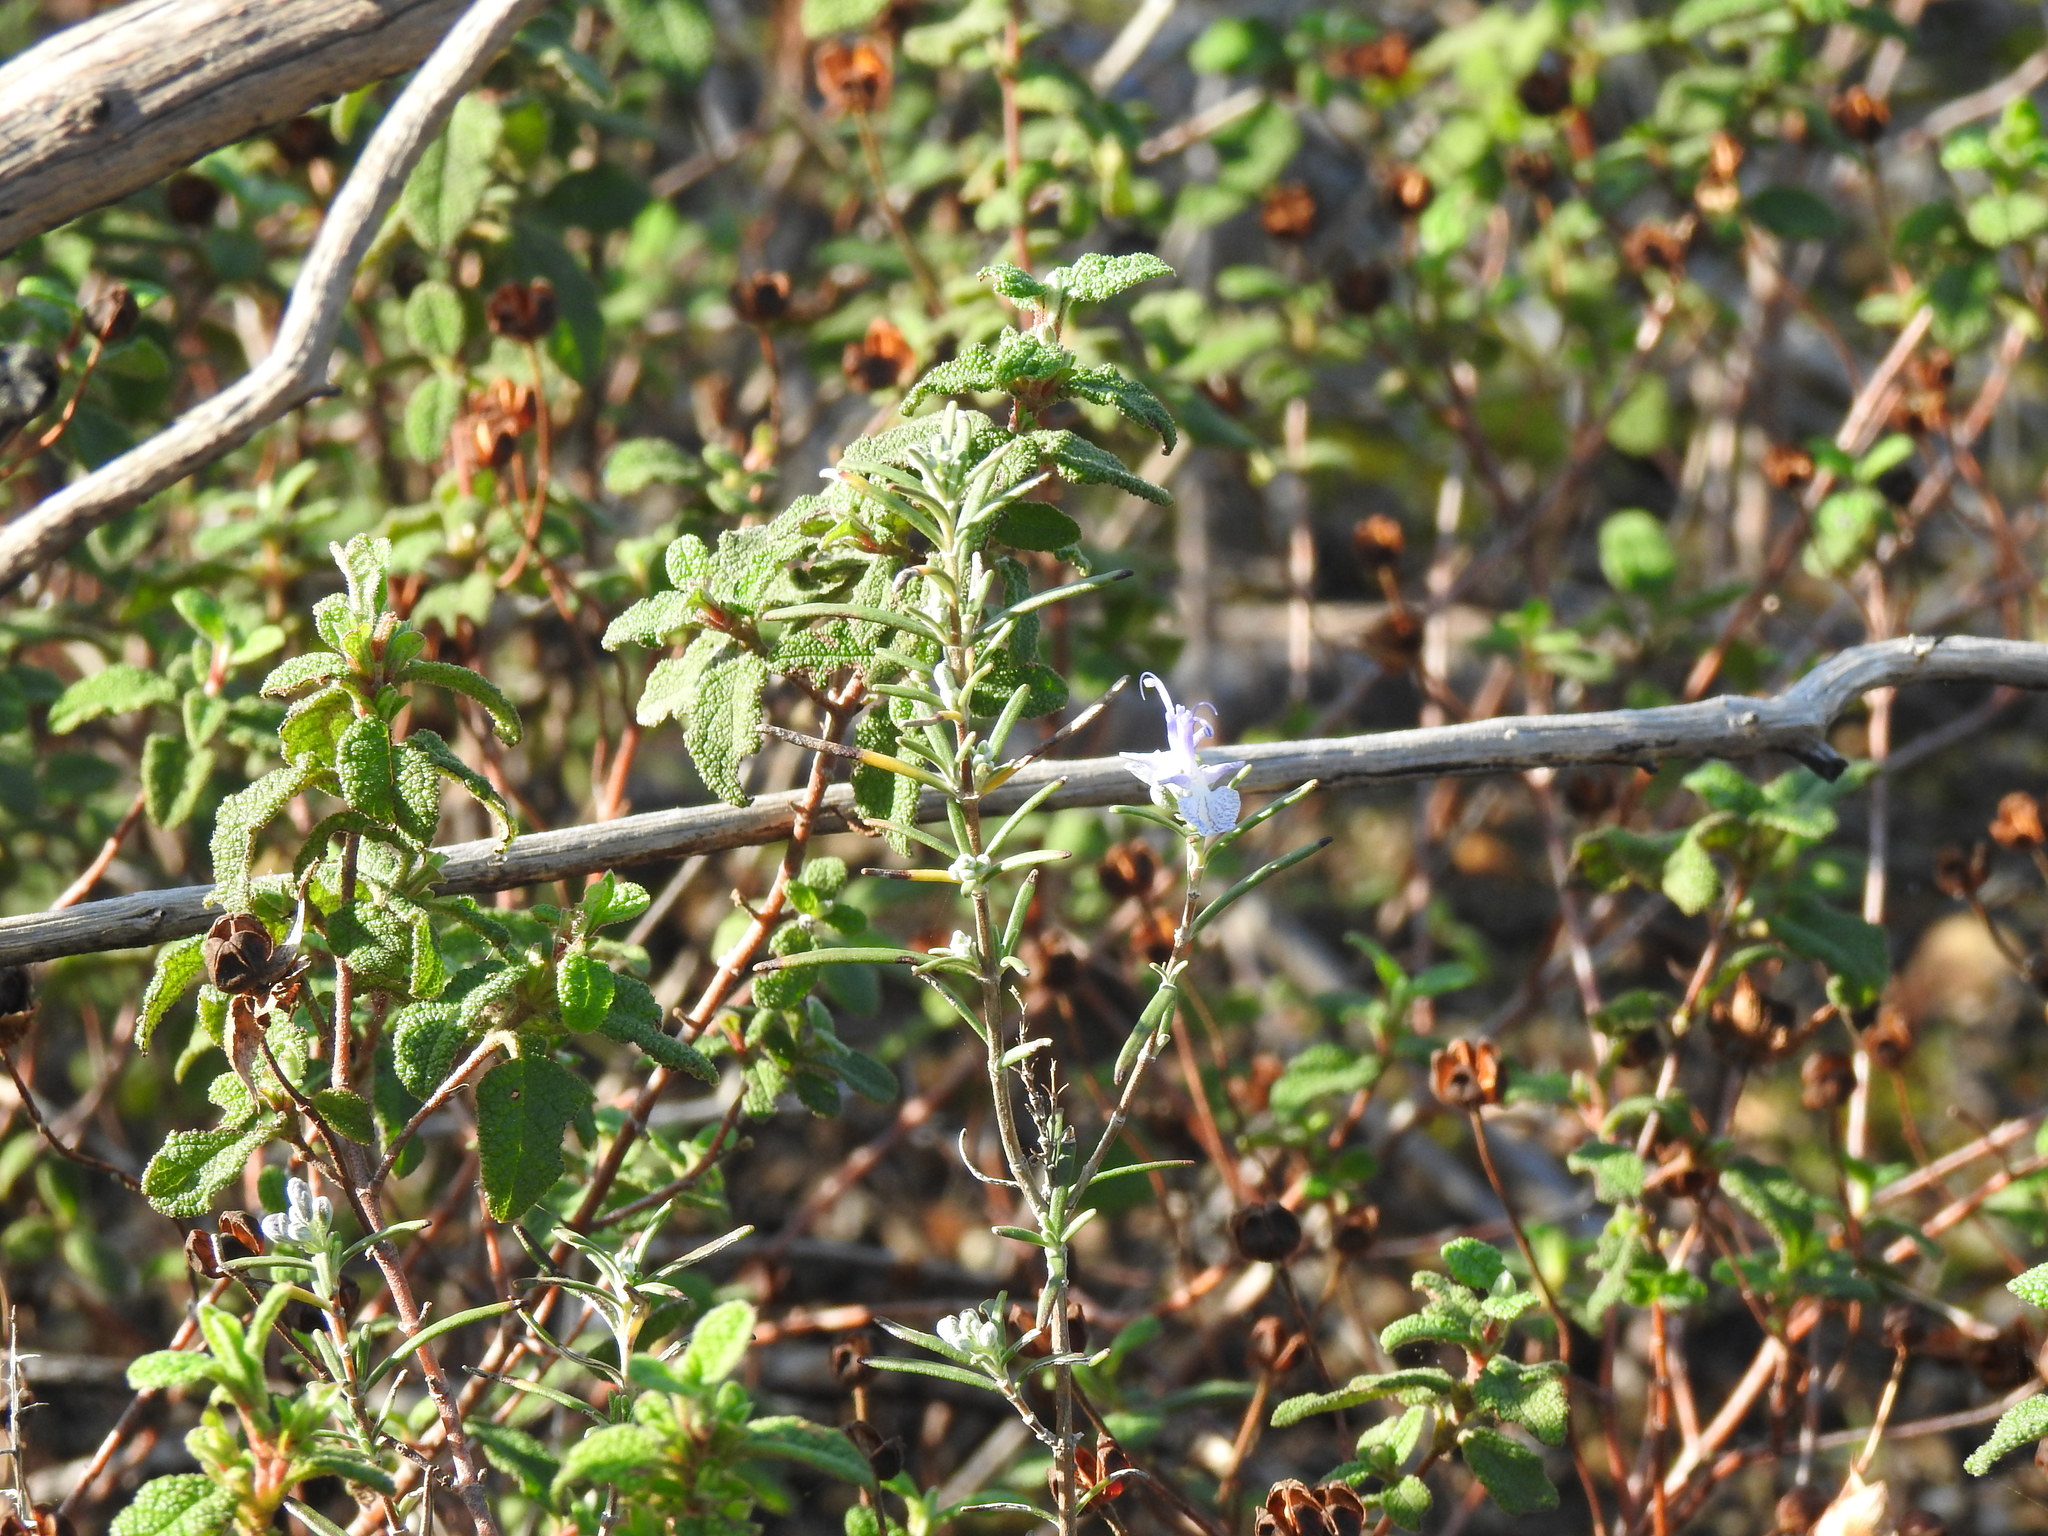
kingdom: Plantae
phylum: Tracheophyta
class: Magnoliopsida
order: Lamiales
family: Lamiaceae
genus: Salvia
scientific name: Salvia rosmarinus
